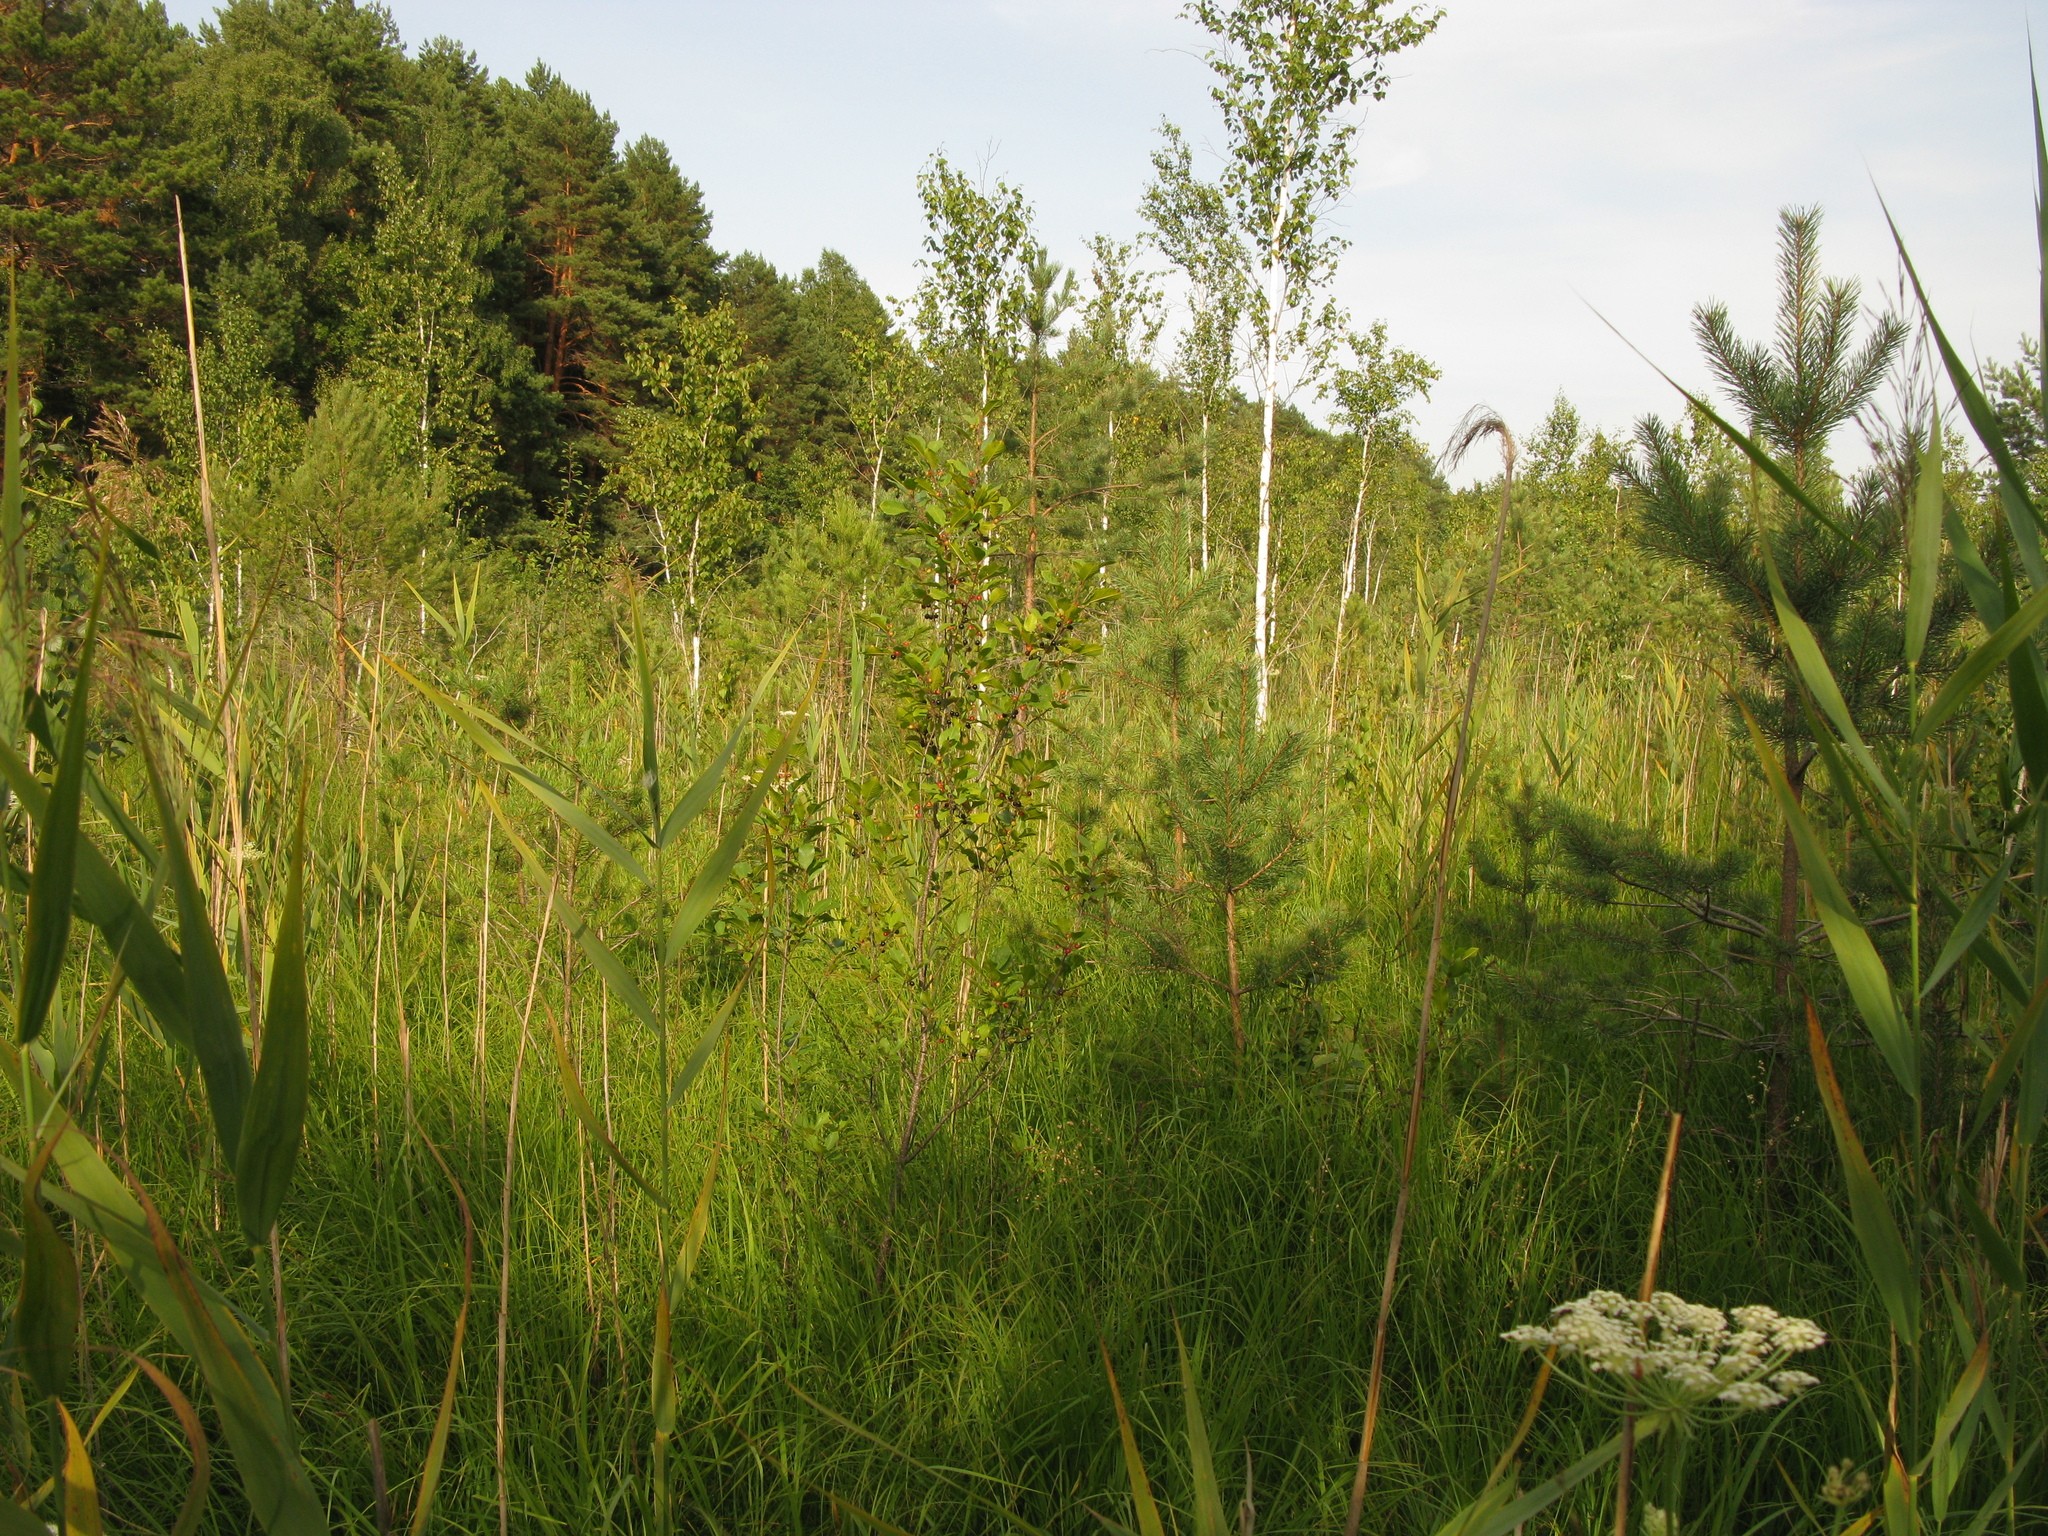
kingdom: Plantae
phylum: Tracheophyta
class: Magnoliopsida
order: Rosales
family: Rhamnaceae
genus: Frangula
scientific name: Frangula alnus
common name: Alder buckthorn
